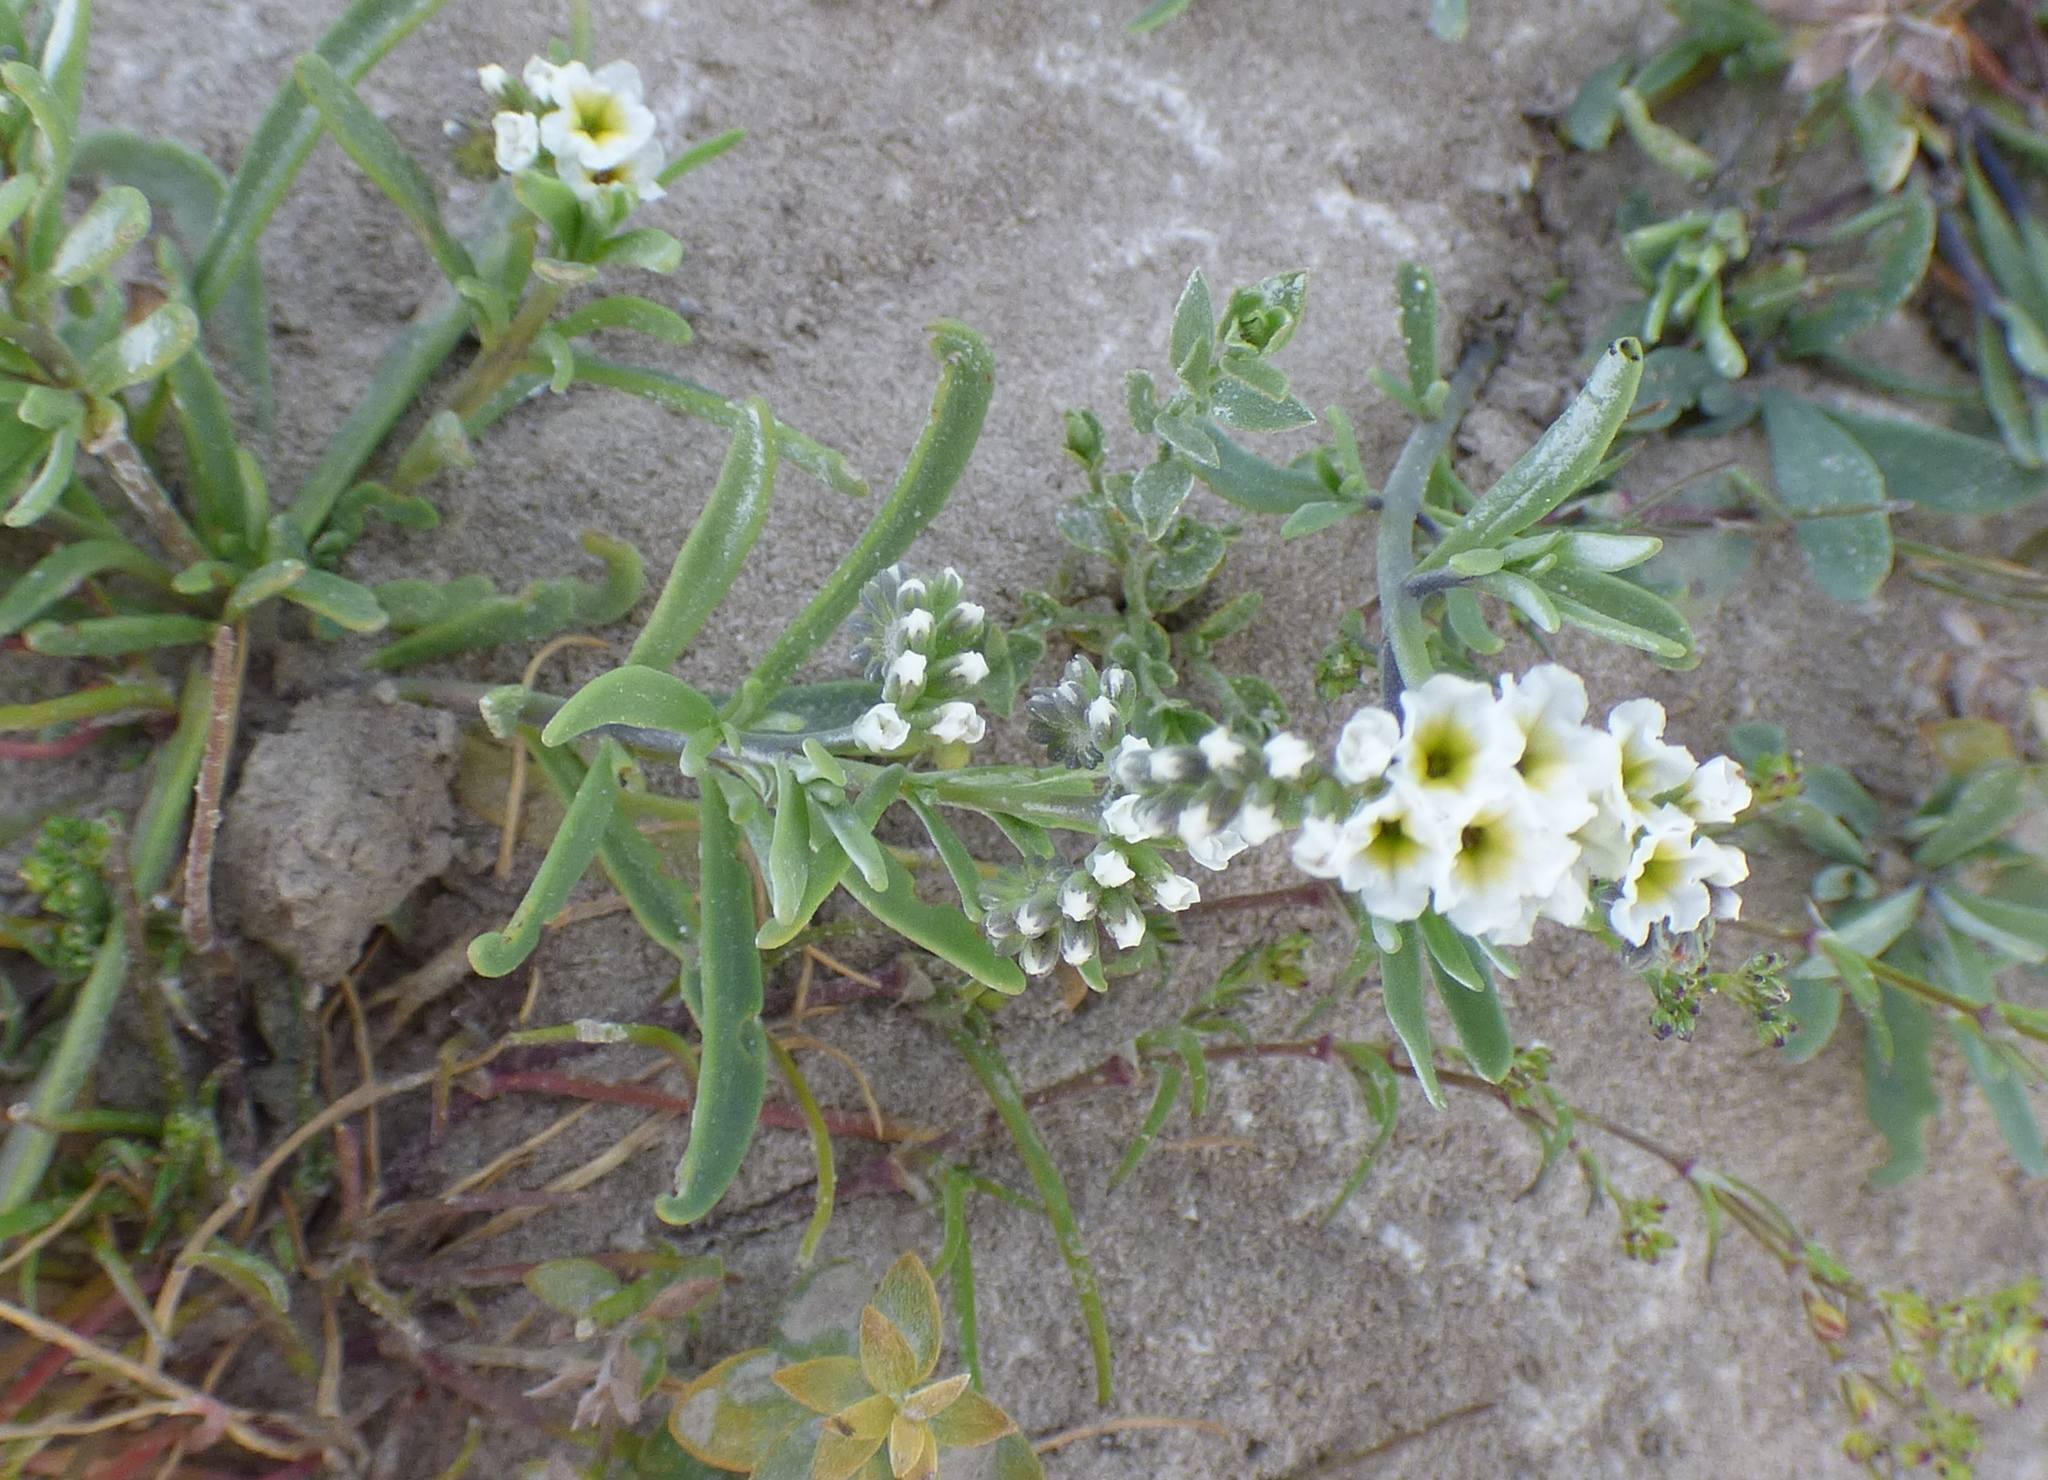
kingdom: Plantae
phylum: Tracheophyta
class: Magnoliopsida
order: Boraginales
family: Heliotropiaceae
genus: Heliotropium
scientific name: Heliotropium curassavicum
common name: Seaside heliotrope
